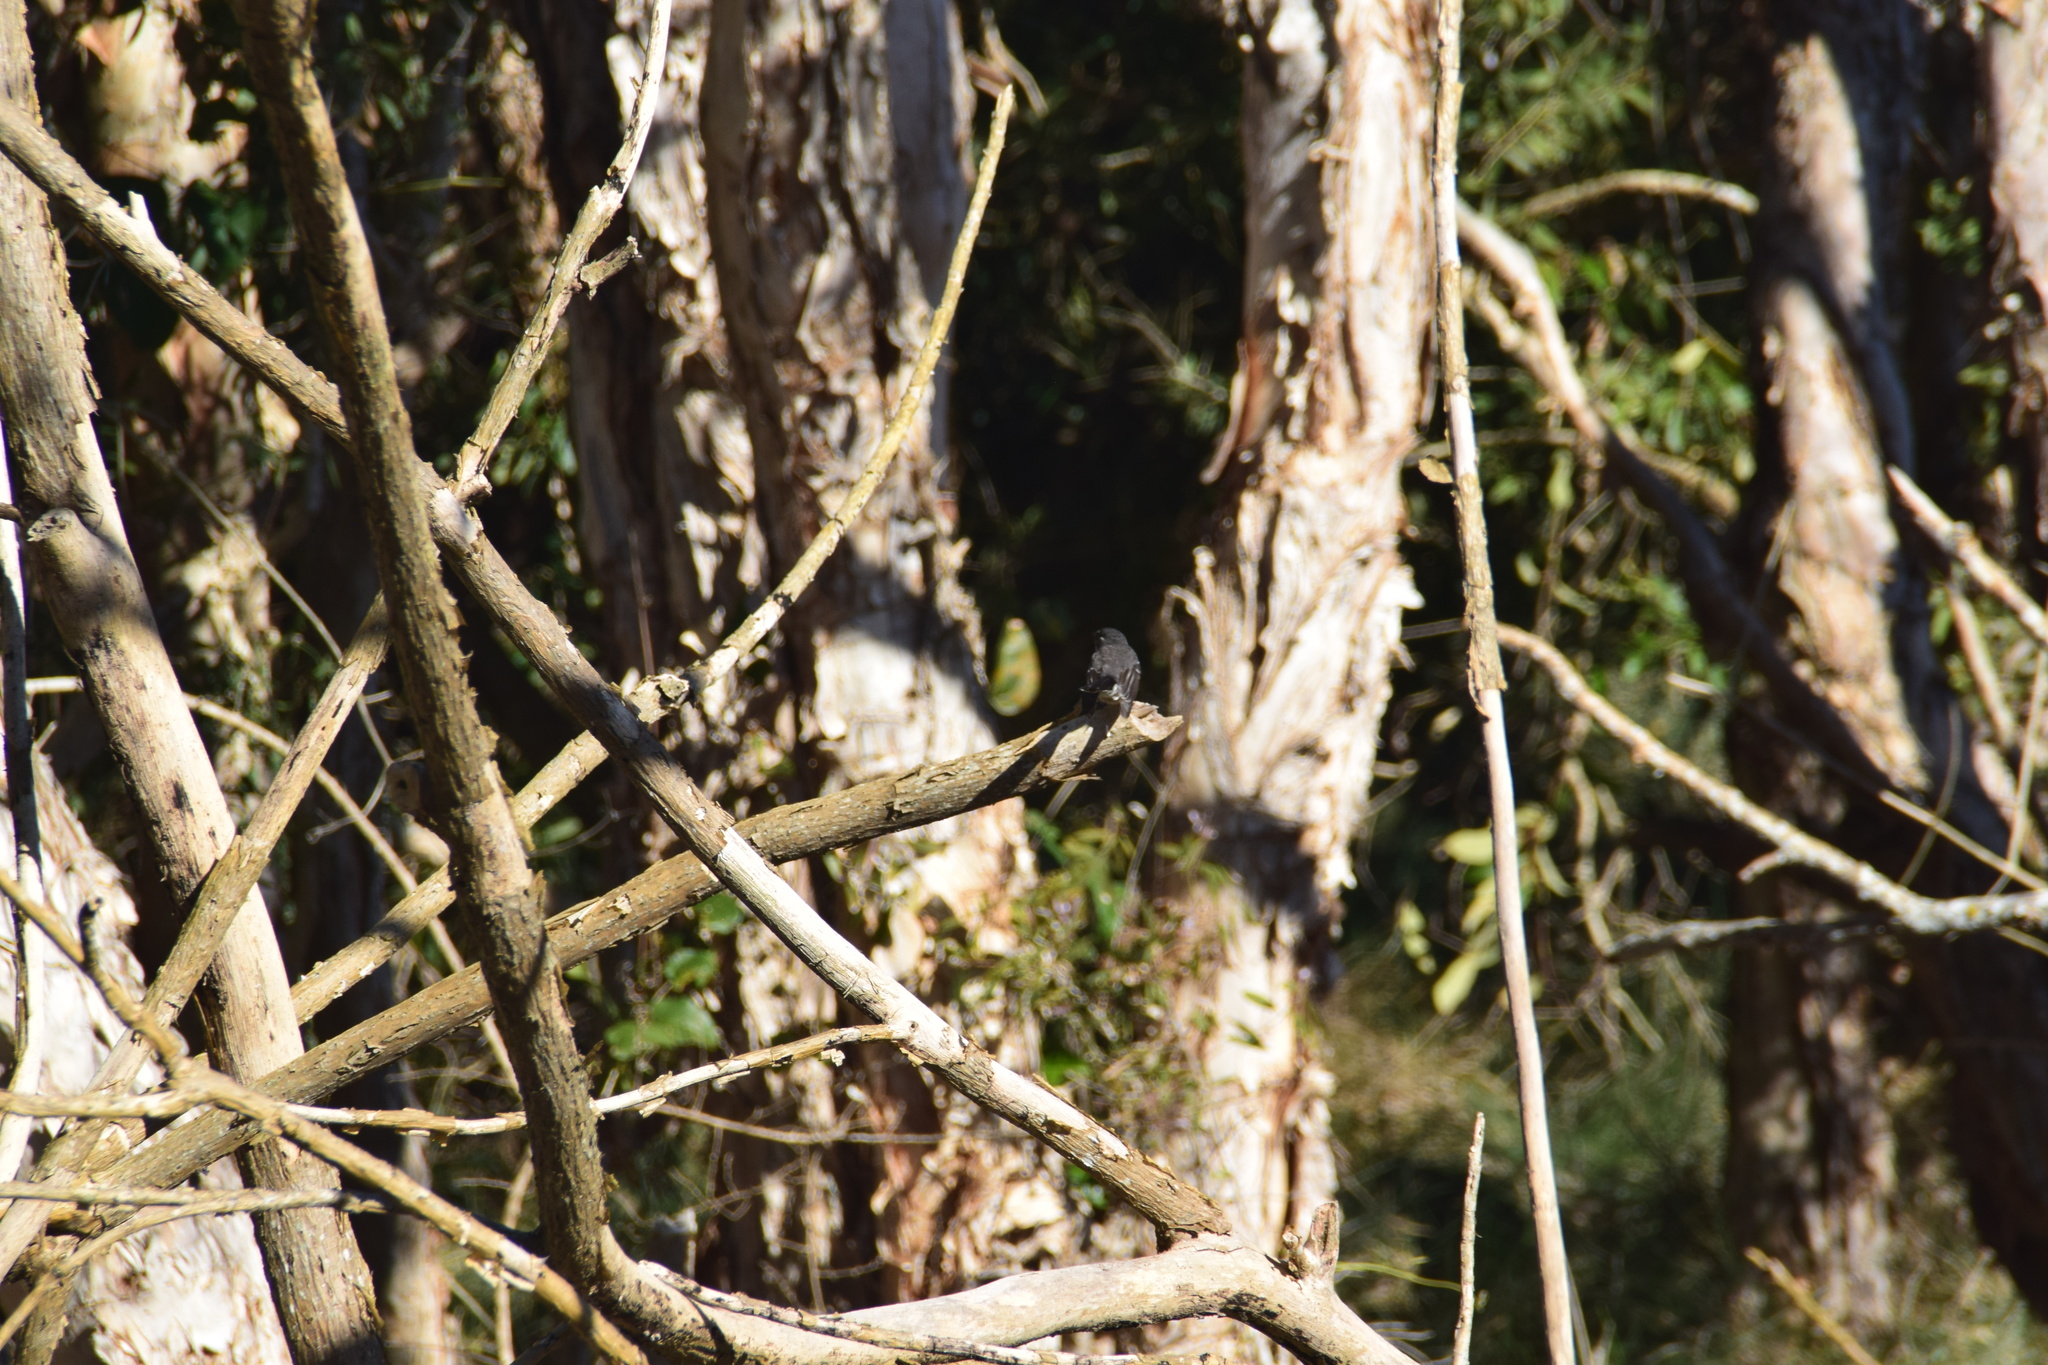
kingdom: Animalia
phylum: Chordata
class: Aves
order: Passeriformes
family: Rhipiduridae
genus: Rhipidura
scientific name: Rhipidura albiscapa
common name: Grey fantail
